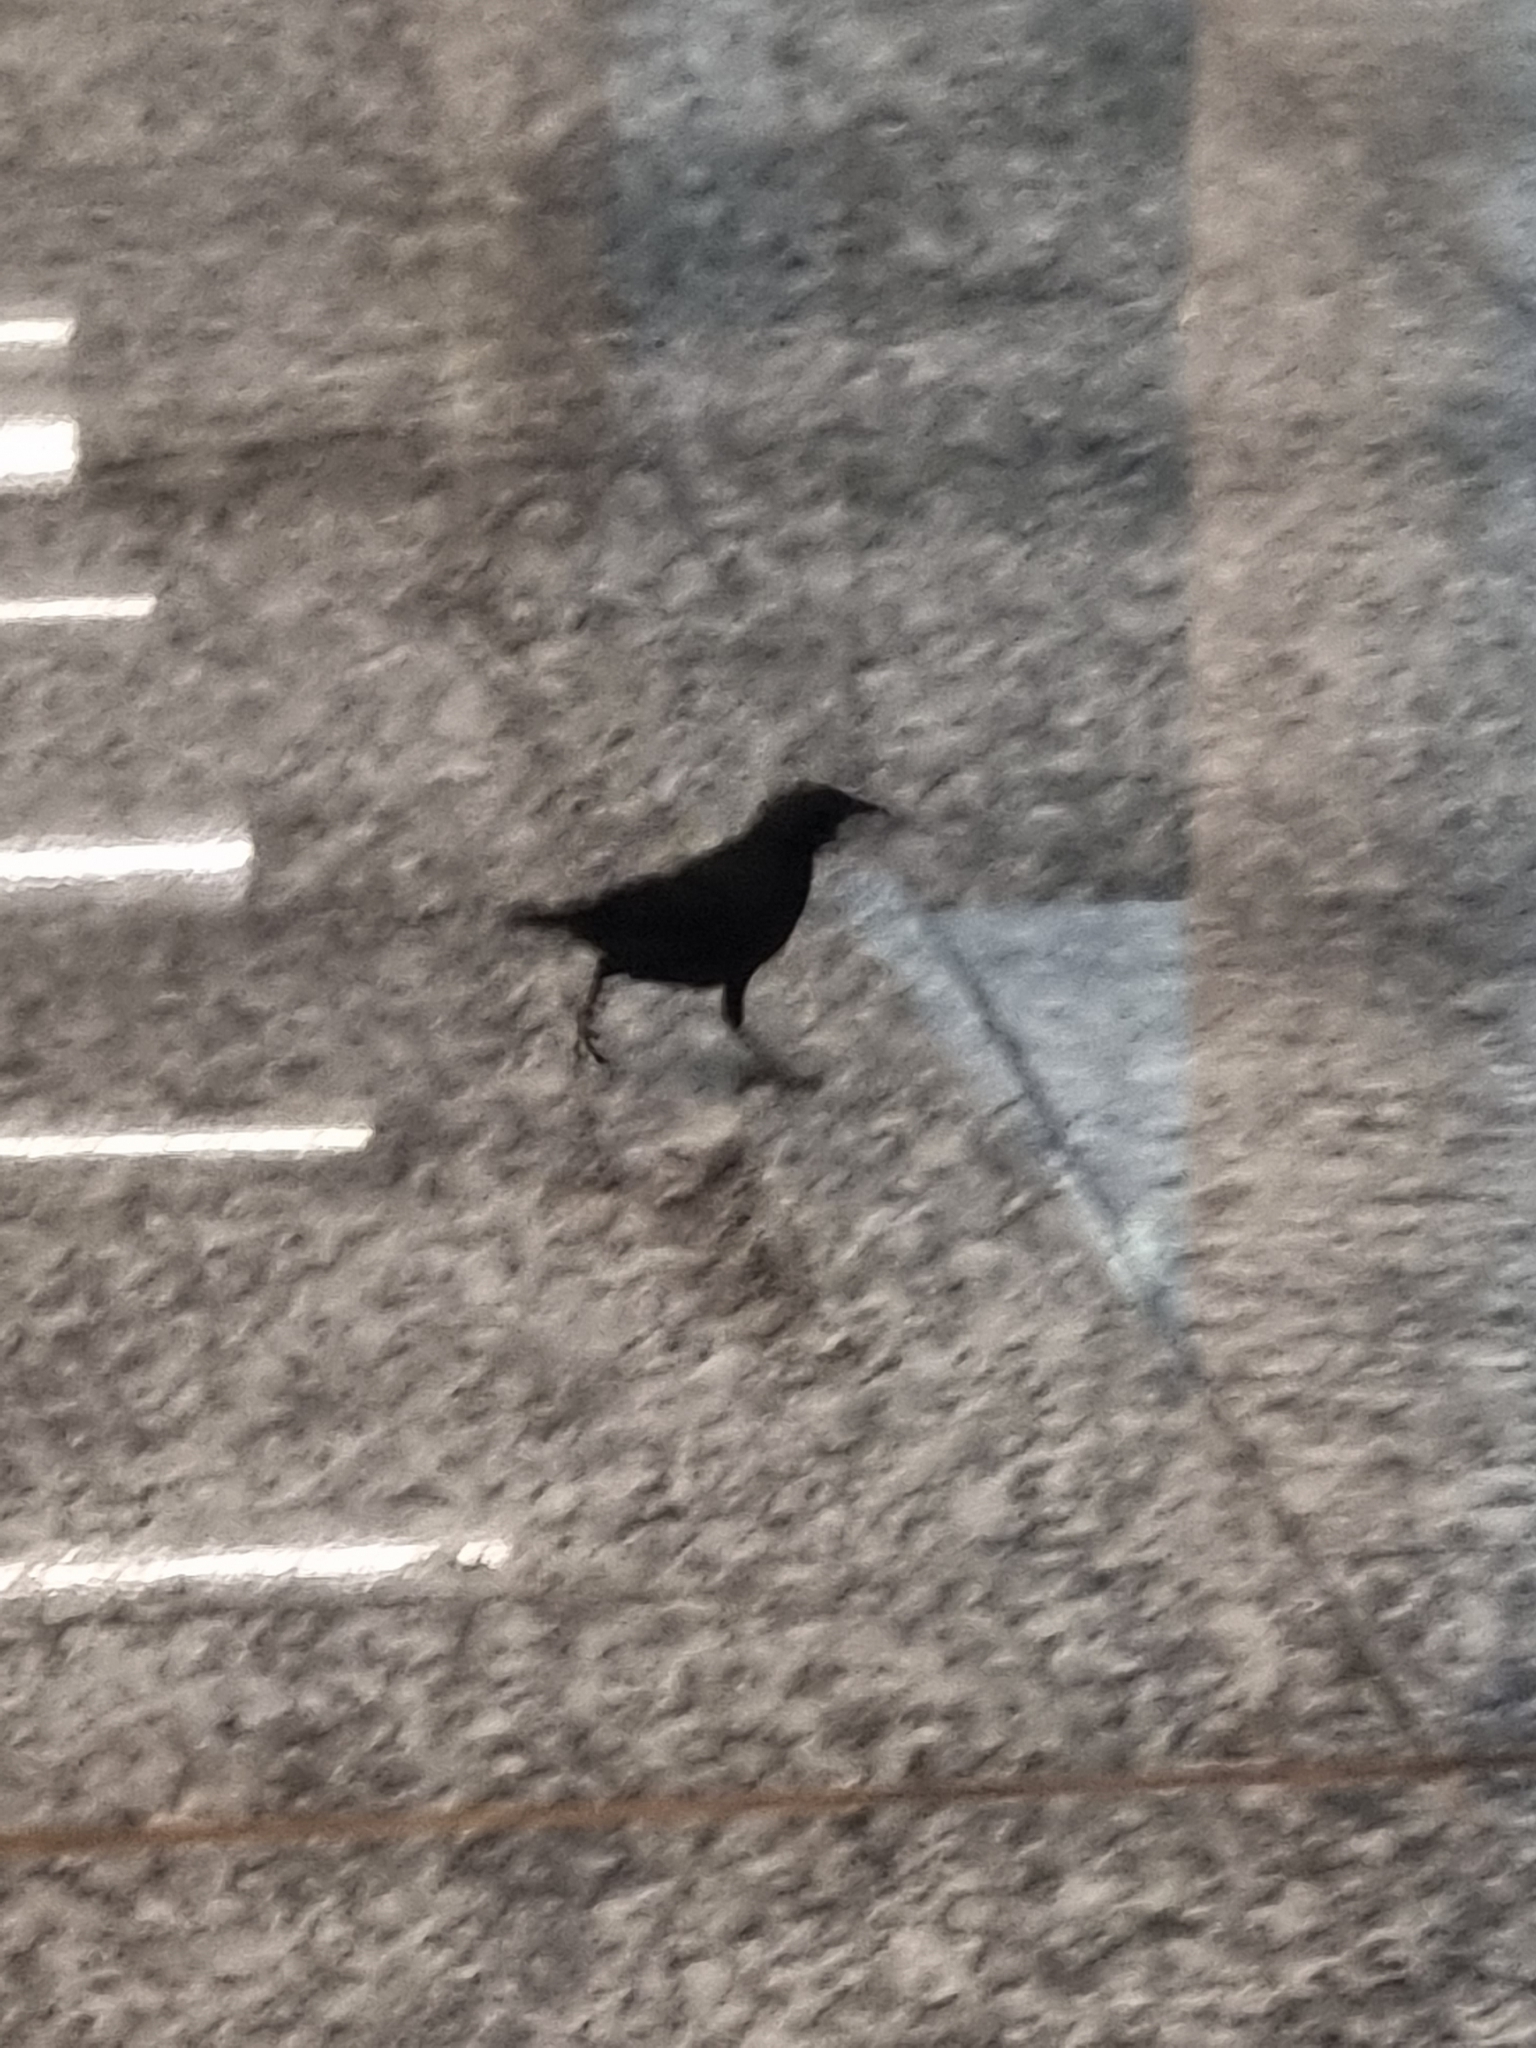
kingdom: Animalia
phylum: Chordata
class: Aves
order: Passeriformes
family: Icteridae
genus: Gnorimopsar
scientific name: Gnorimopsar chopi
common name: Chopi blackbird
